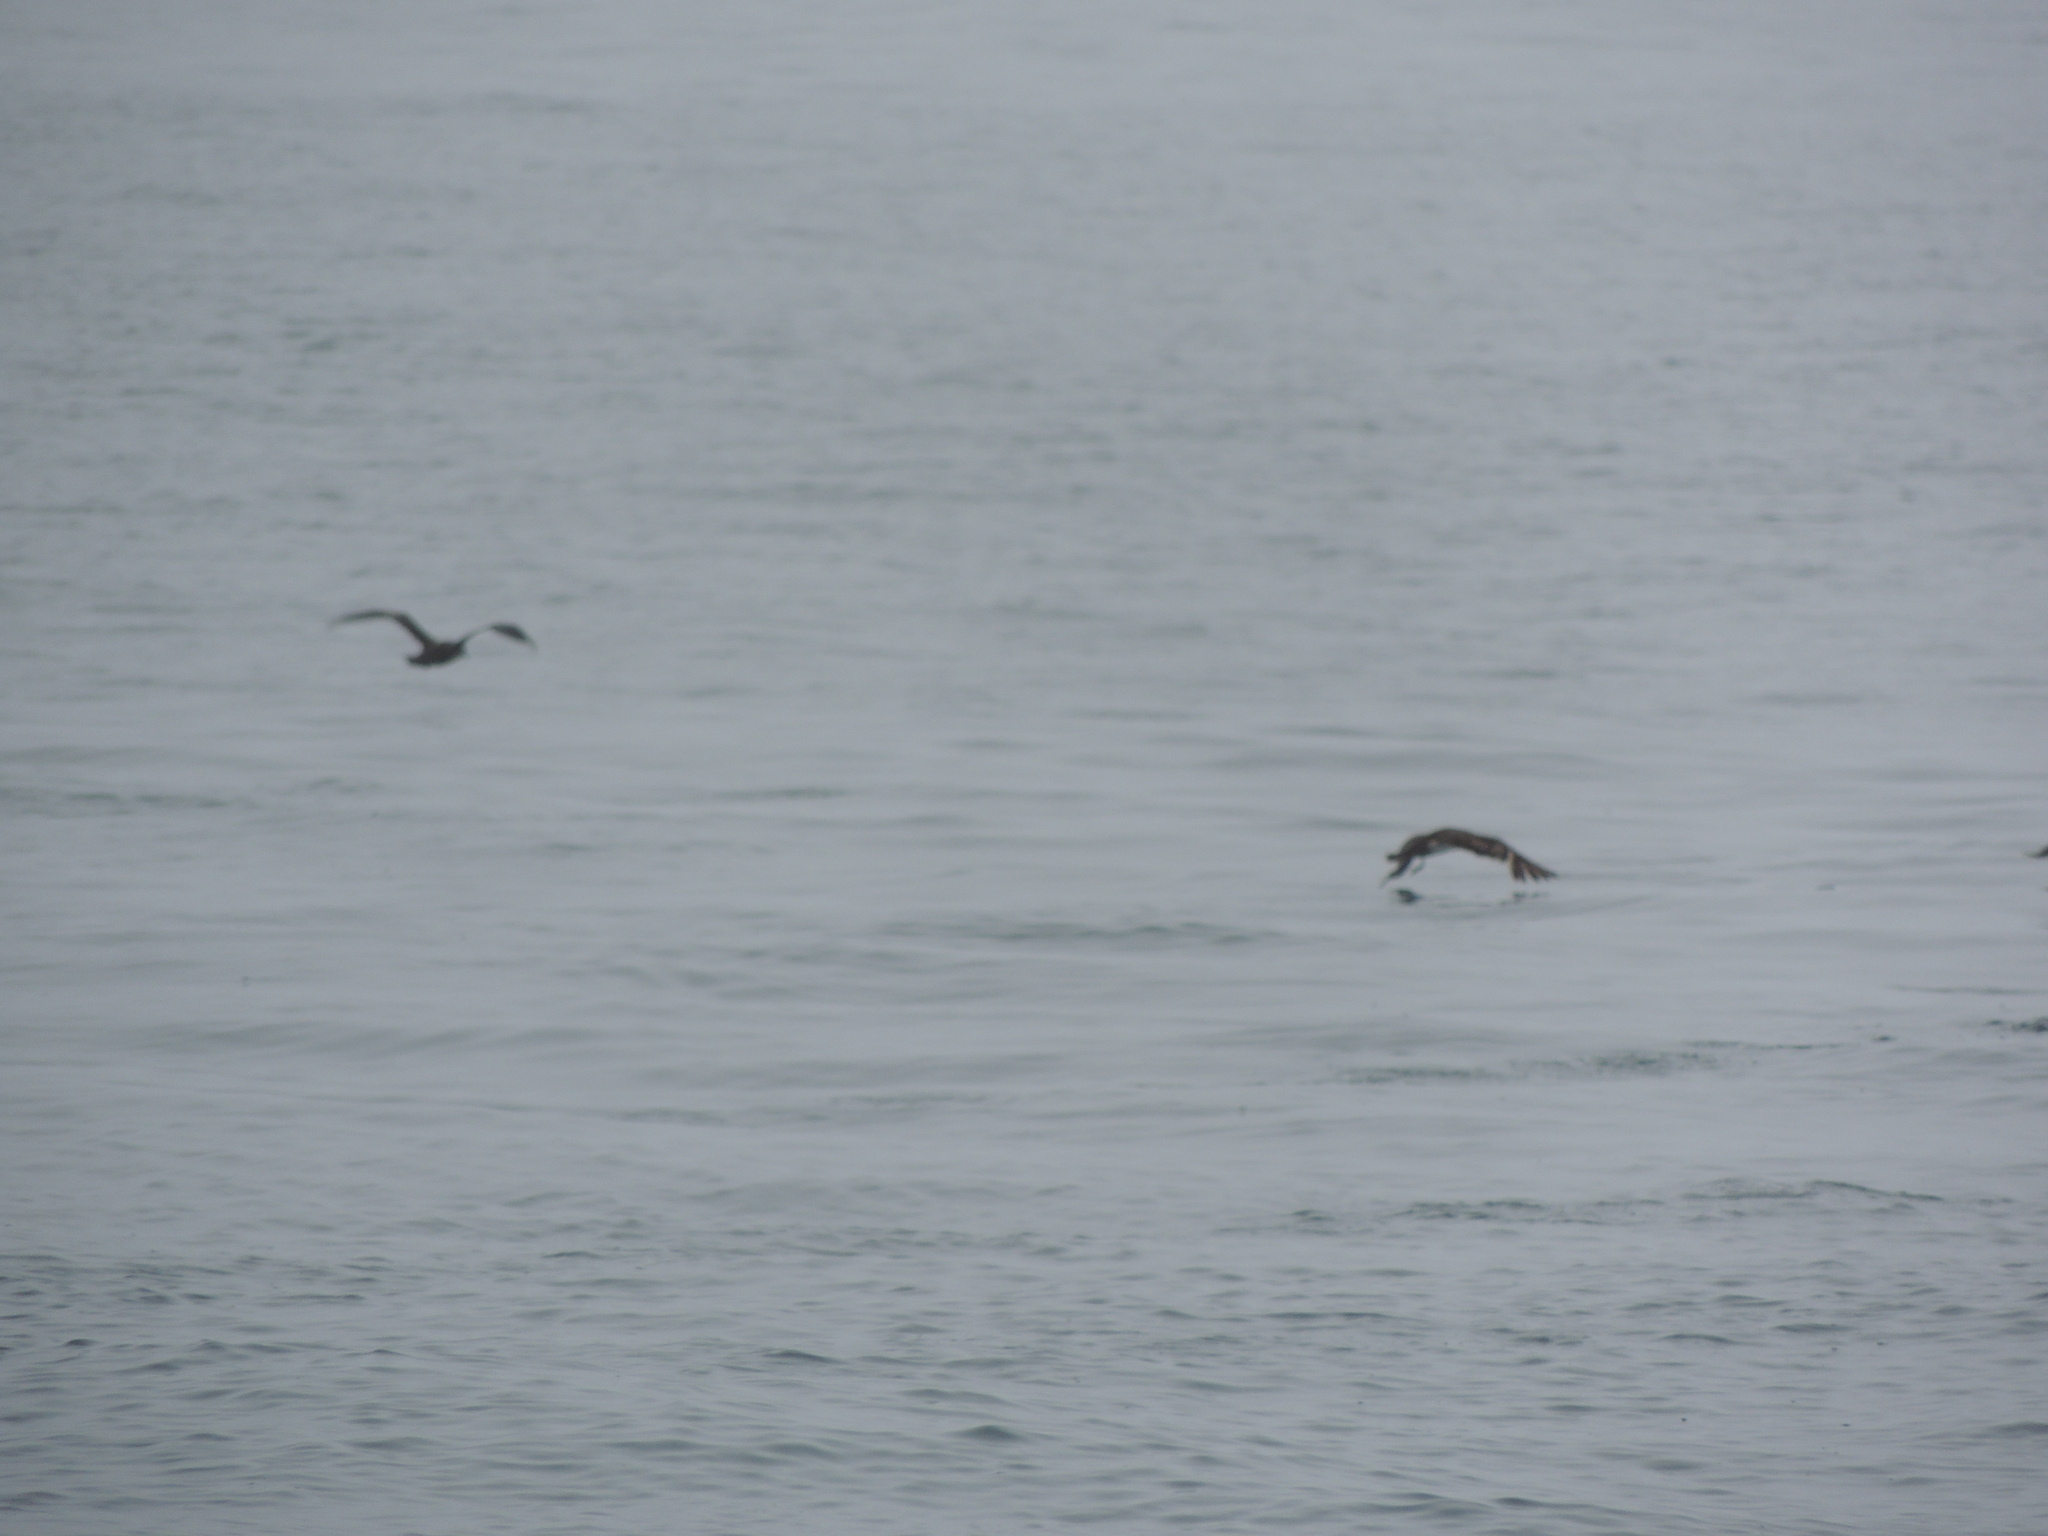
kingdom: Animalia
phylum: Chordata
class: Aves
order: Procellariiformes
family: Procellariidae
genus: Puffinus
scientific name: Puffinus griseus
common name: Sooty shearwater
